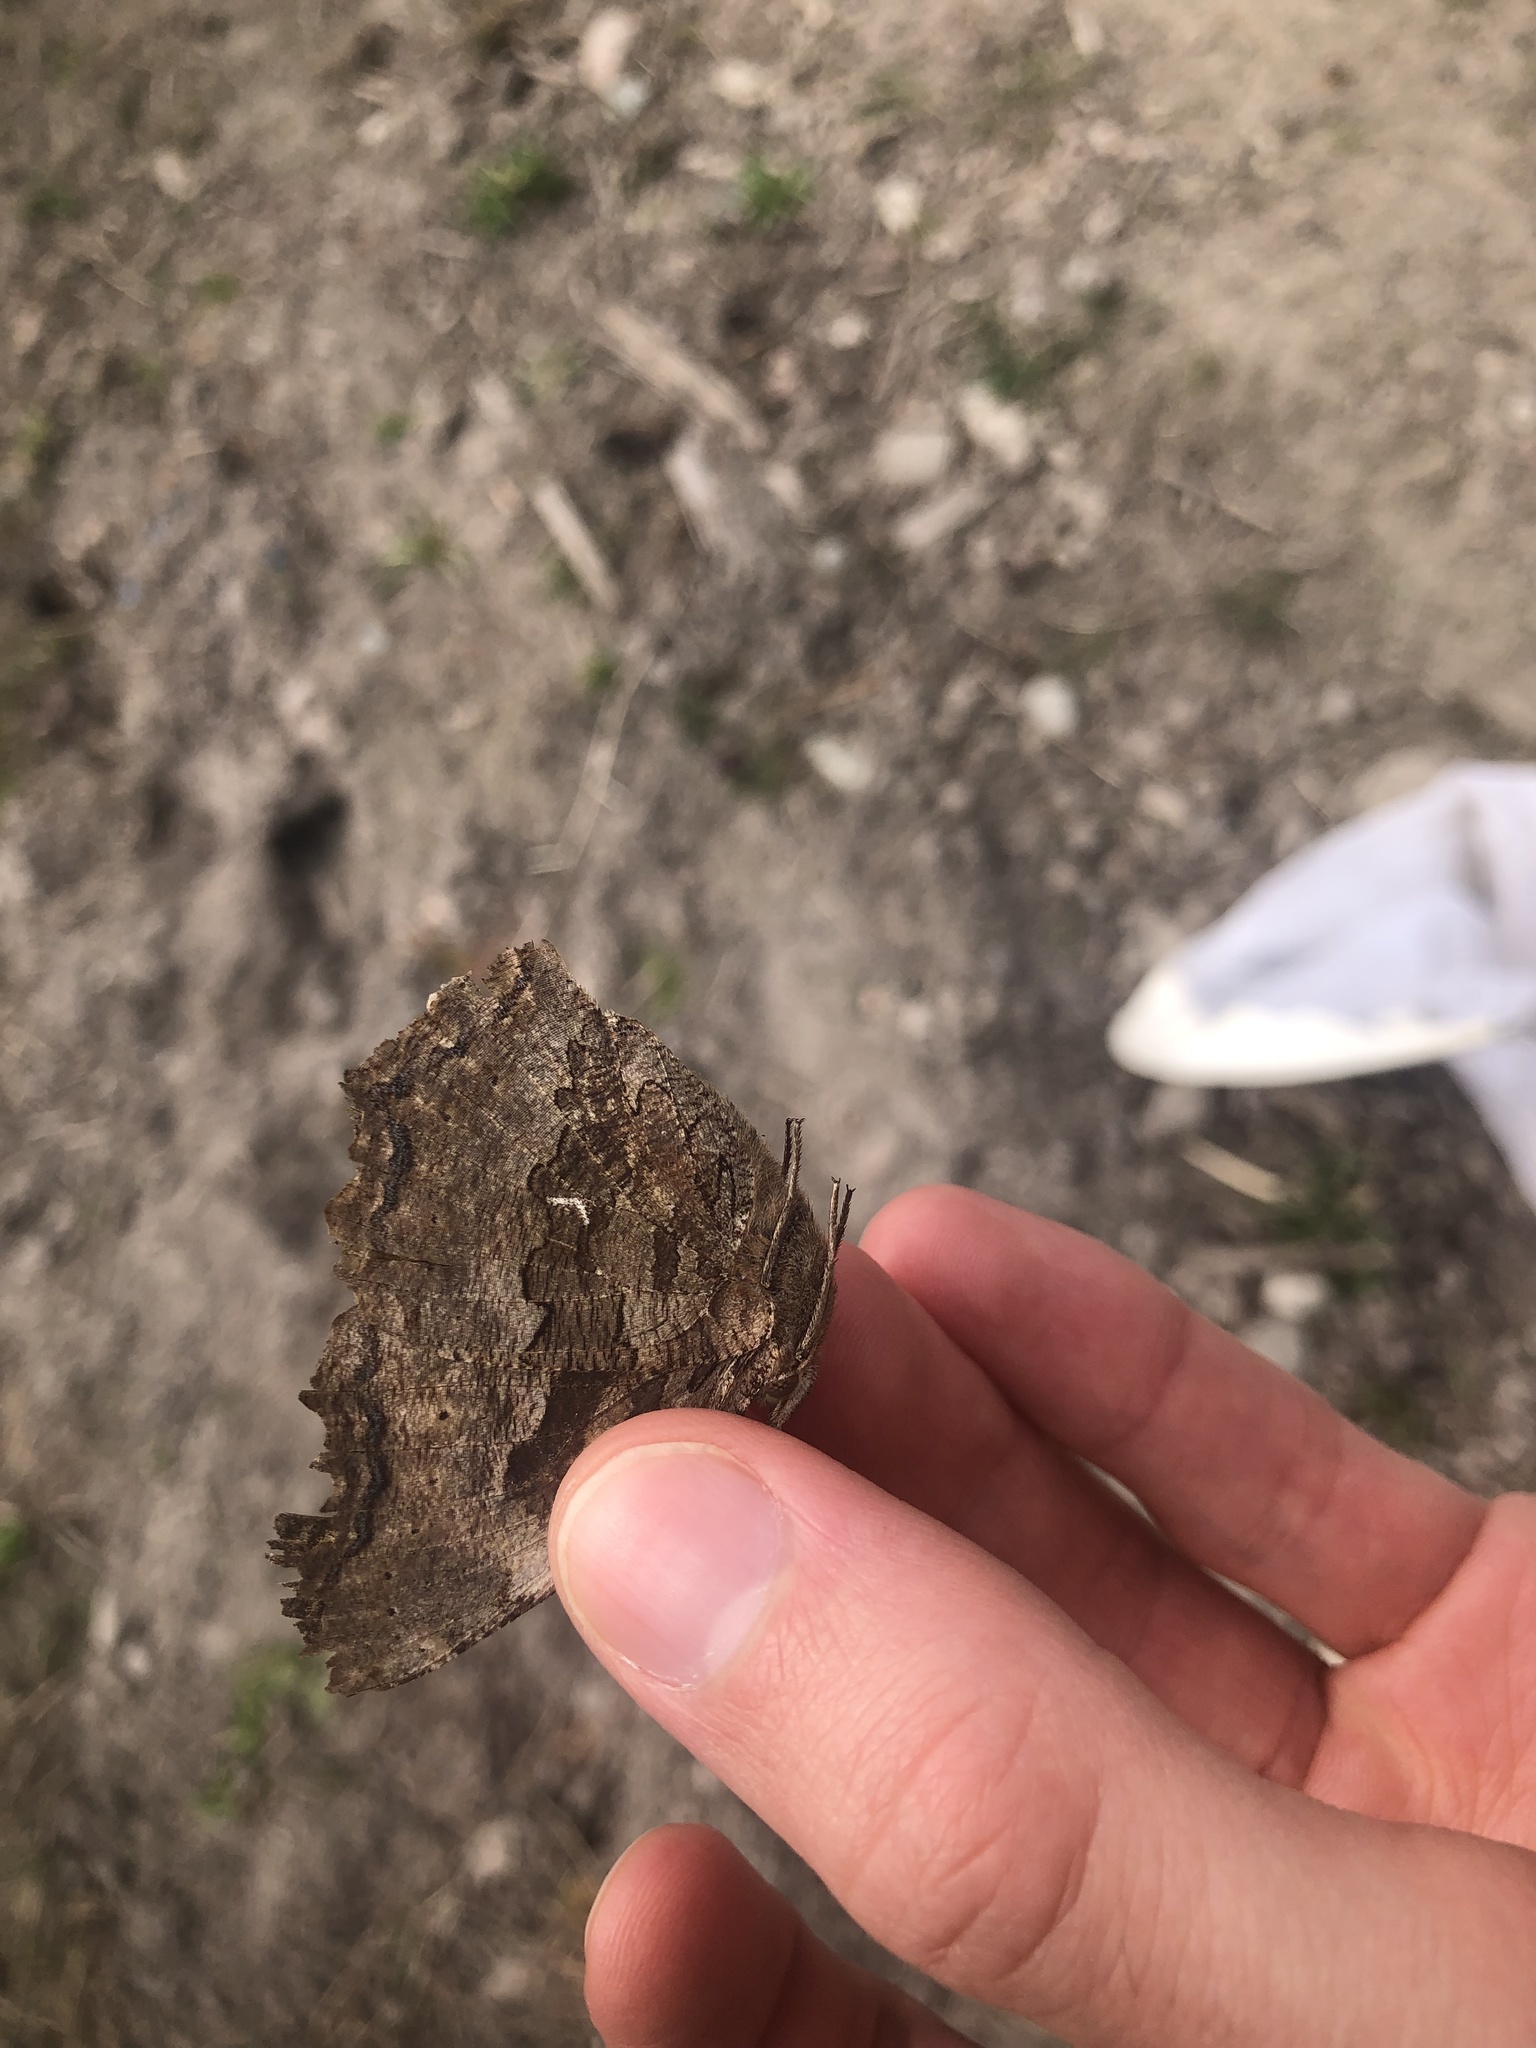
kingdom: Animalia
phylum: Arthropoda
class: Insecta
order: Lepidoptera
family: Nymphalidae
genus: Polygonia
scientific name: Polygonia vaualbum
